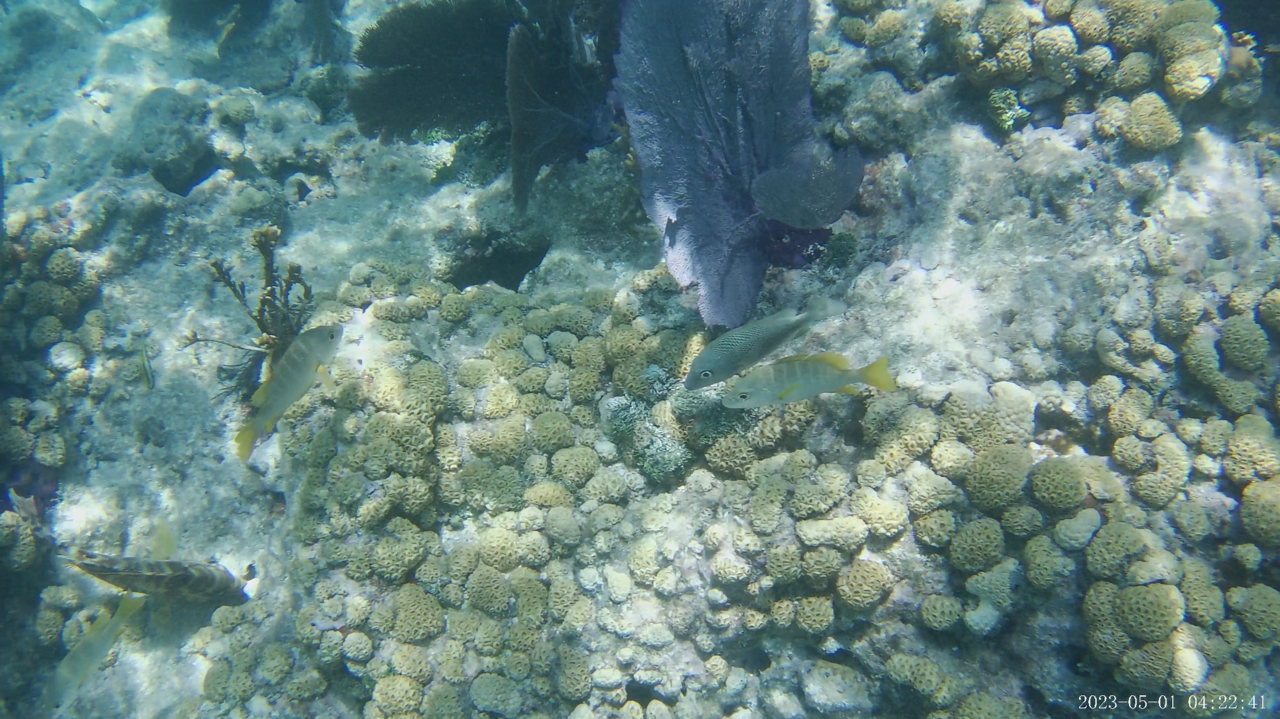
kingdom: Animalia
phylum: Chordata
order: Perciformes
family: Lutjanidae
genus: Lutjanus
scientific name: Lutjanus apodus
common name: Schoolmaster
